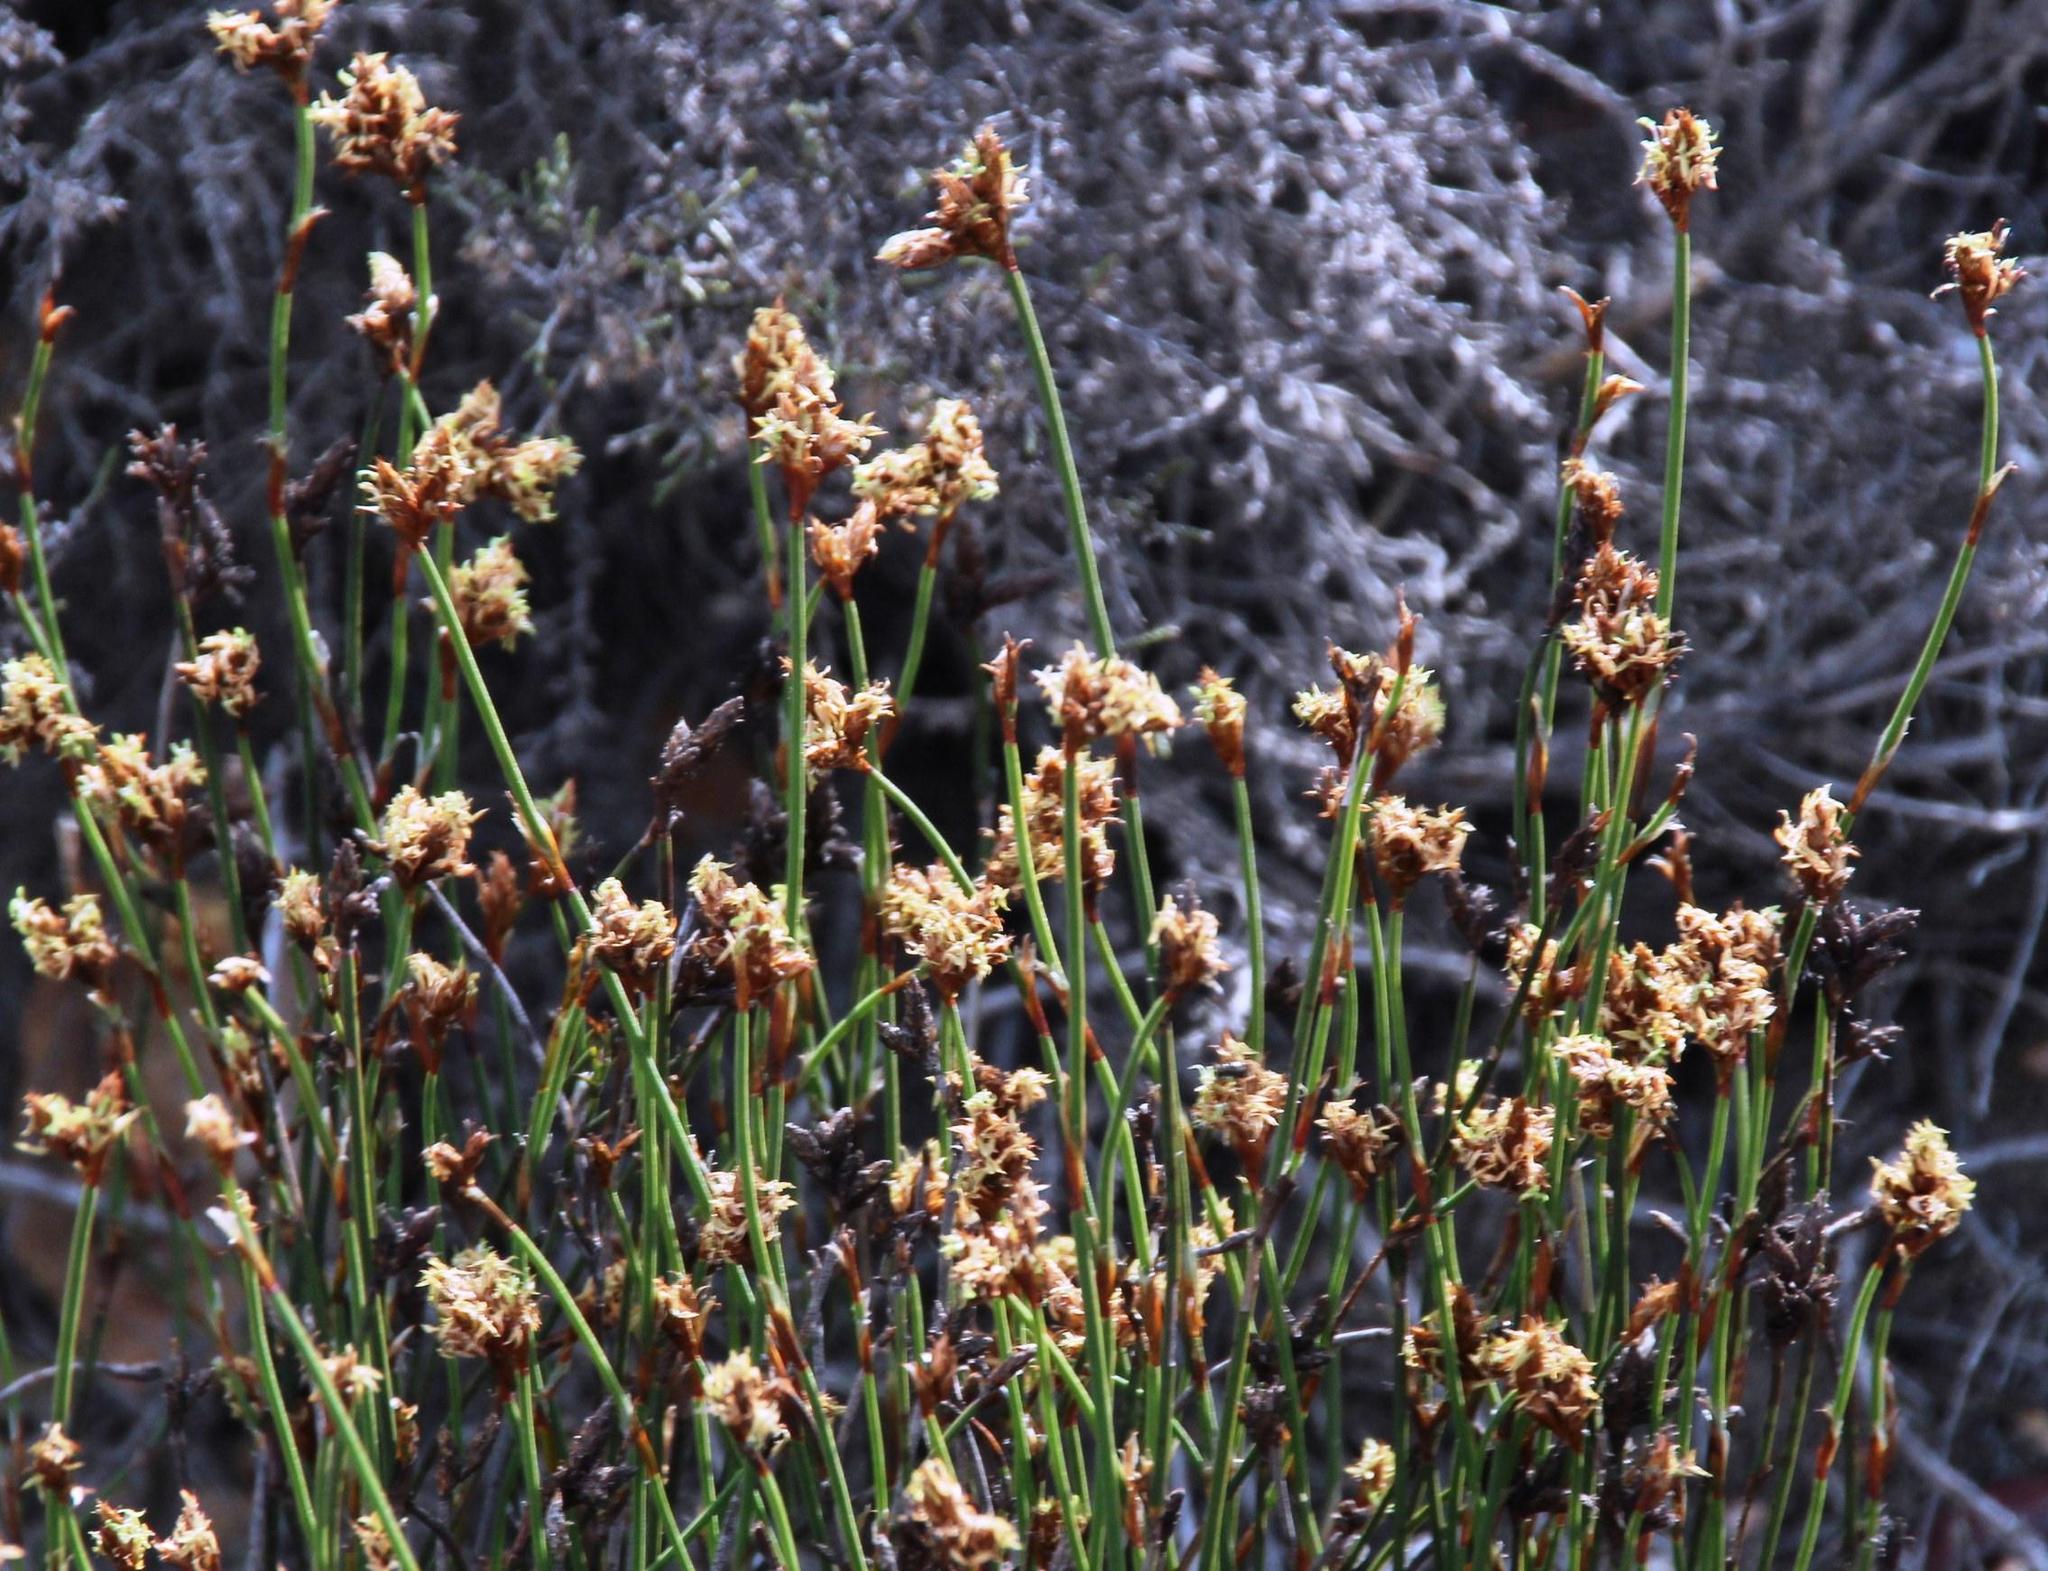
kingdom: Plantae
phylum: Tracheophyta
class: Liliopsida
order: Poales
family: Restionaceae
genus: Restio
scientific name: Restio capensis
